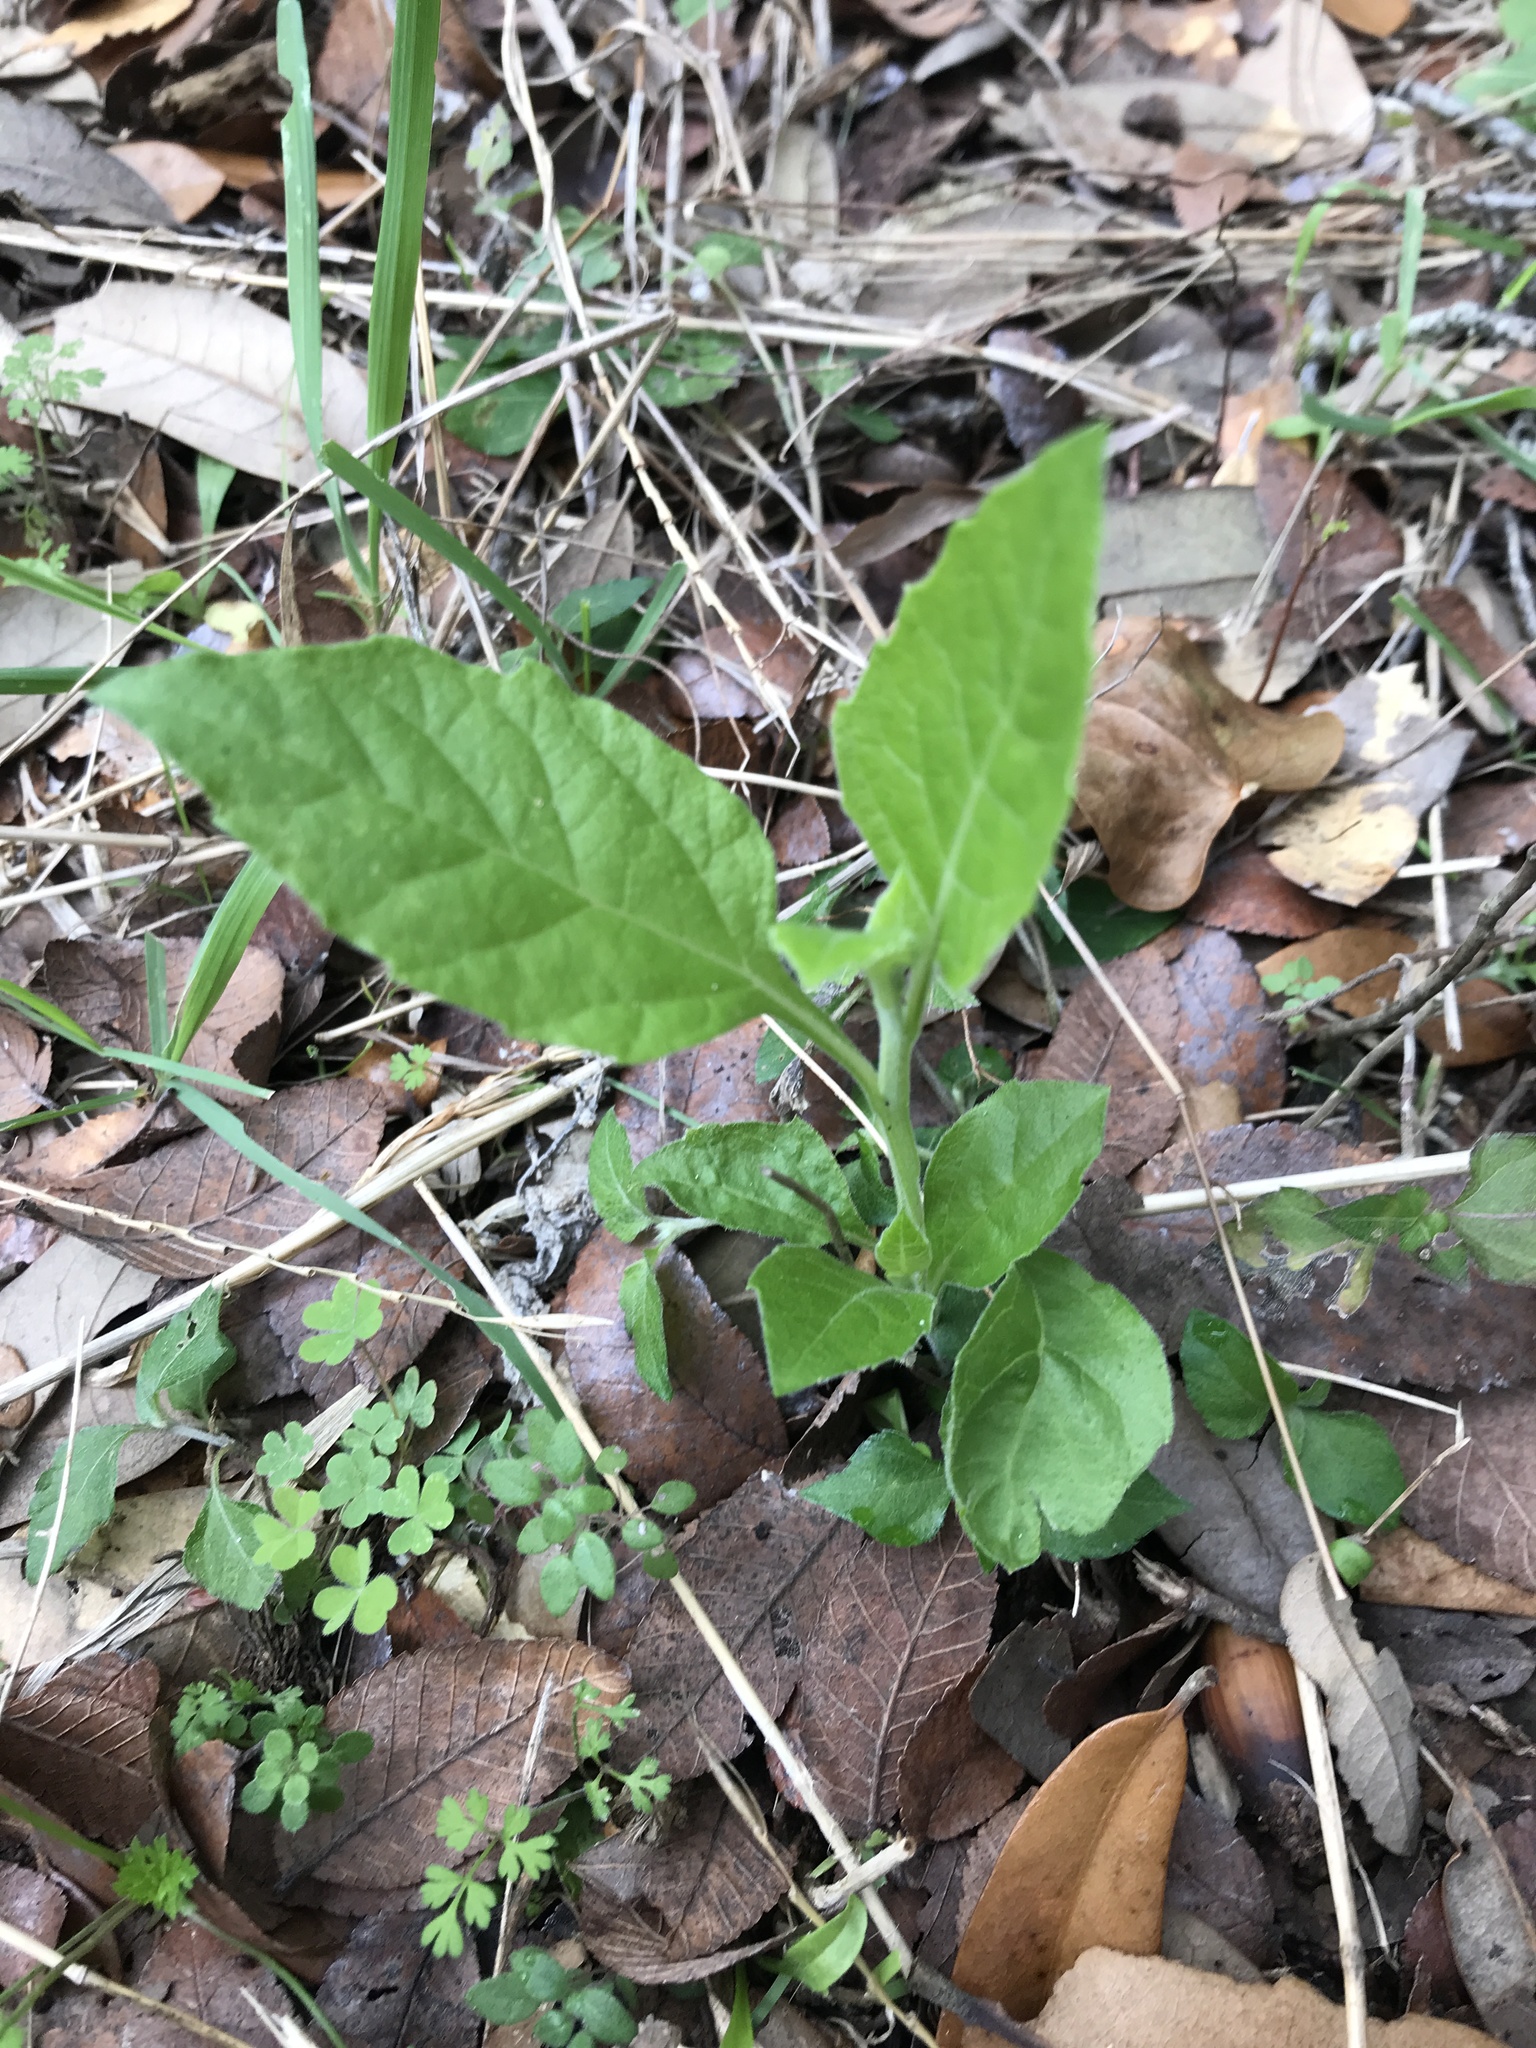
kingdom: Plantae
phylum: Tracheophyta
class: Magnoliopsida
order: Asterales
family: Asteraceae
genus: Verbesina
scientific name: Verbesina virginica
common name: Frostweed
